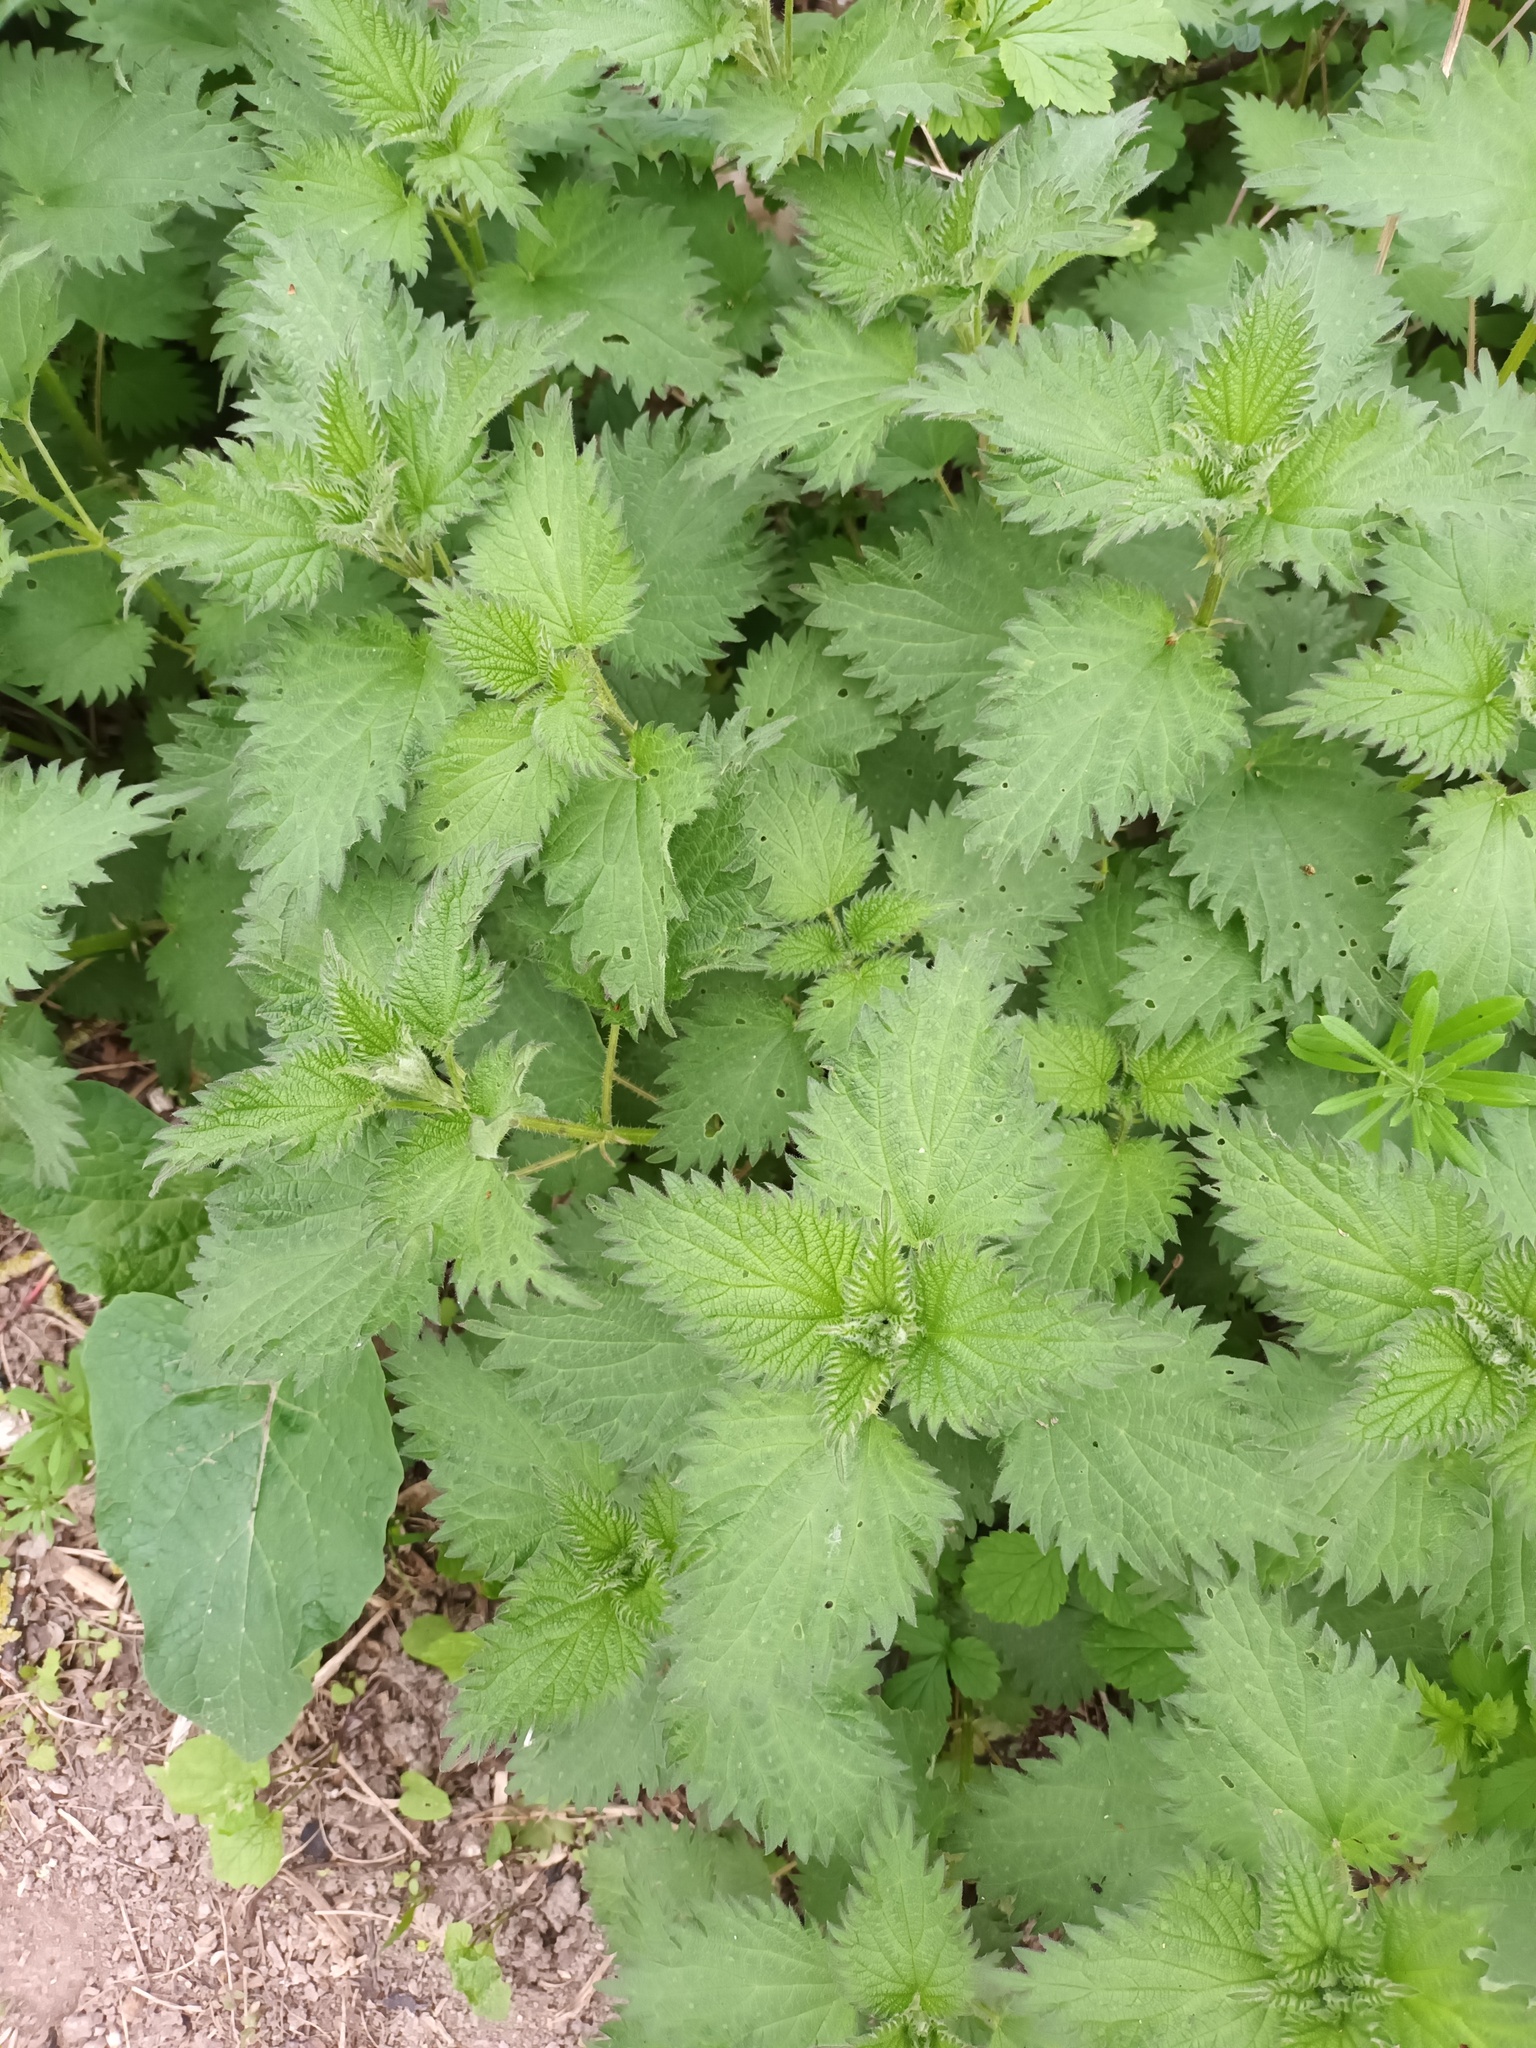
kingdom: Plantae
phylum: Tracheophyta
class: Magnoliopsida
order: Rosales
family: Urticaceae
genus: Urtica
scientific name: Urtica dioica
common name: Common nettle
